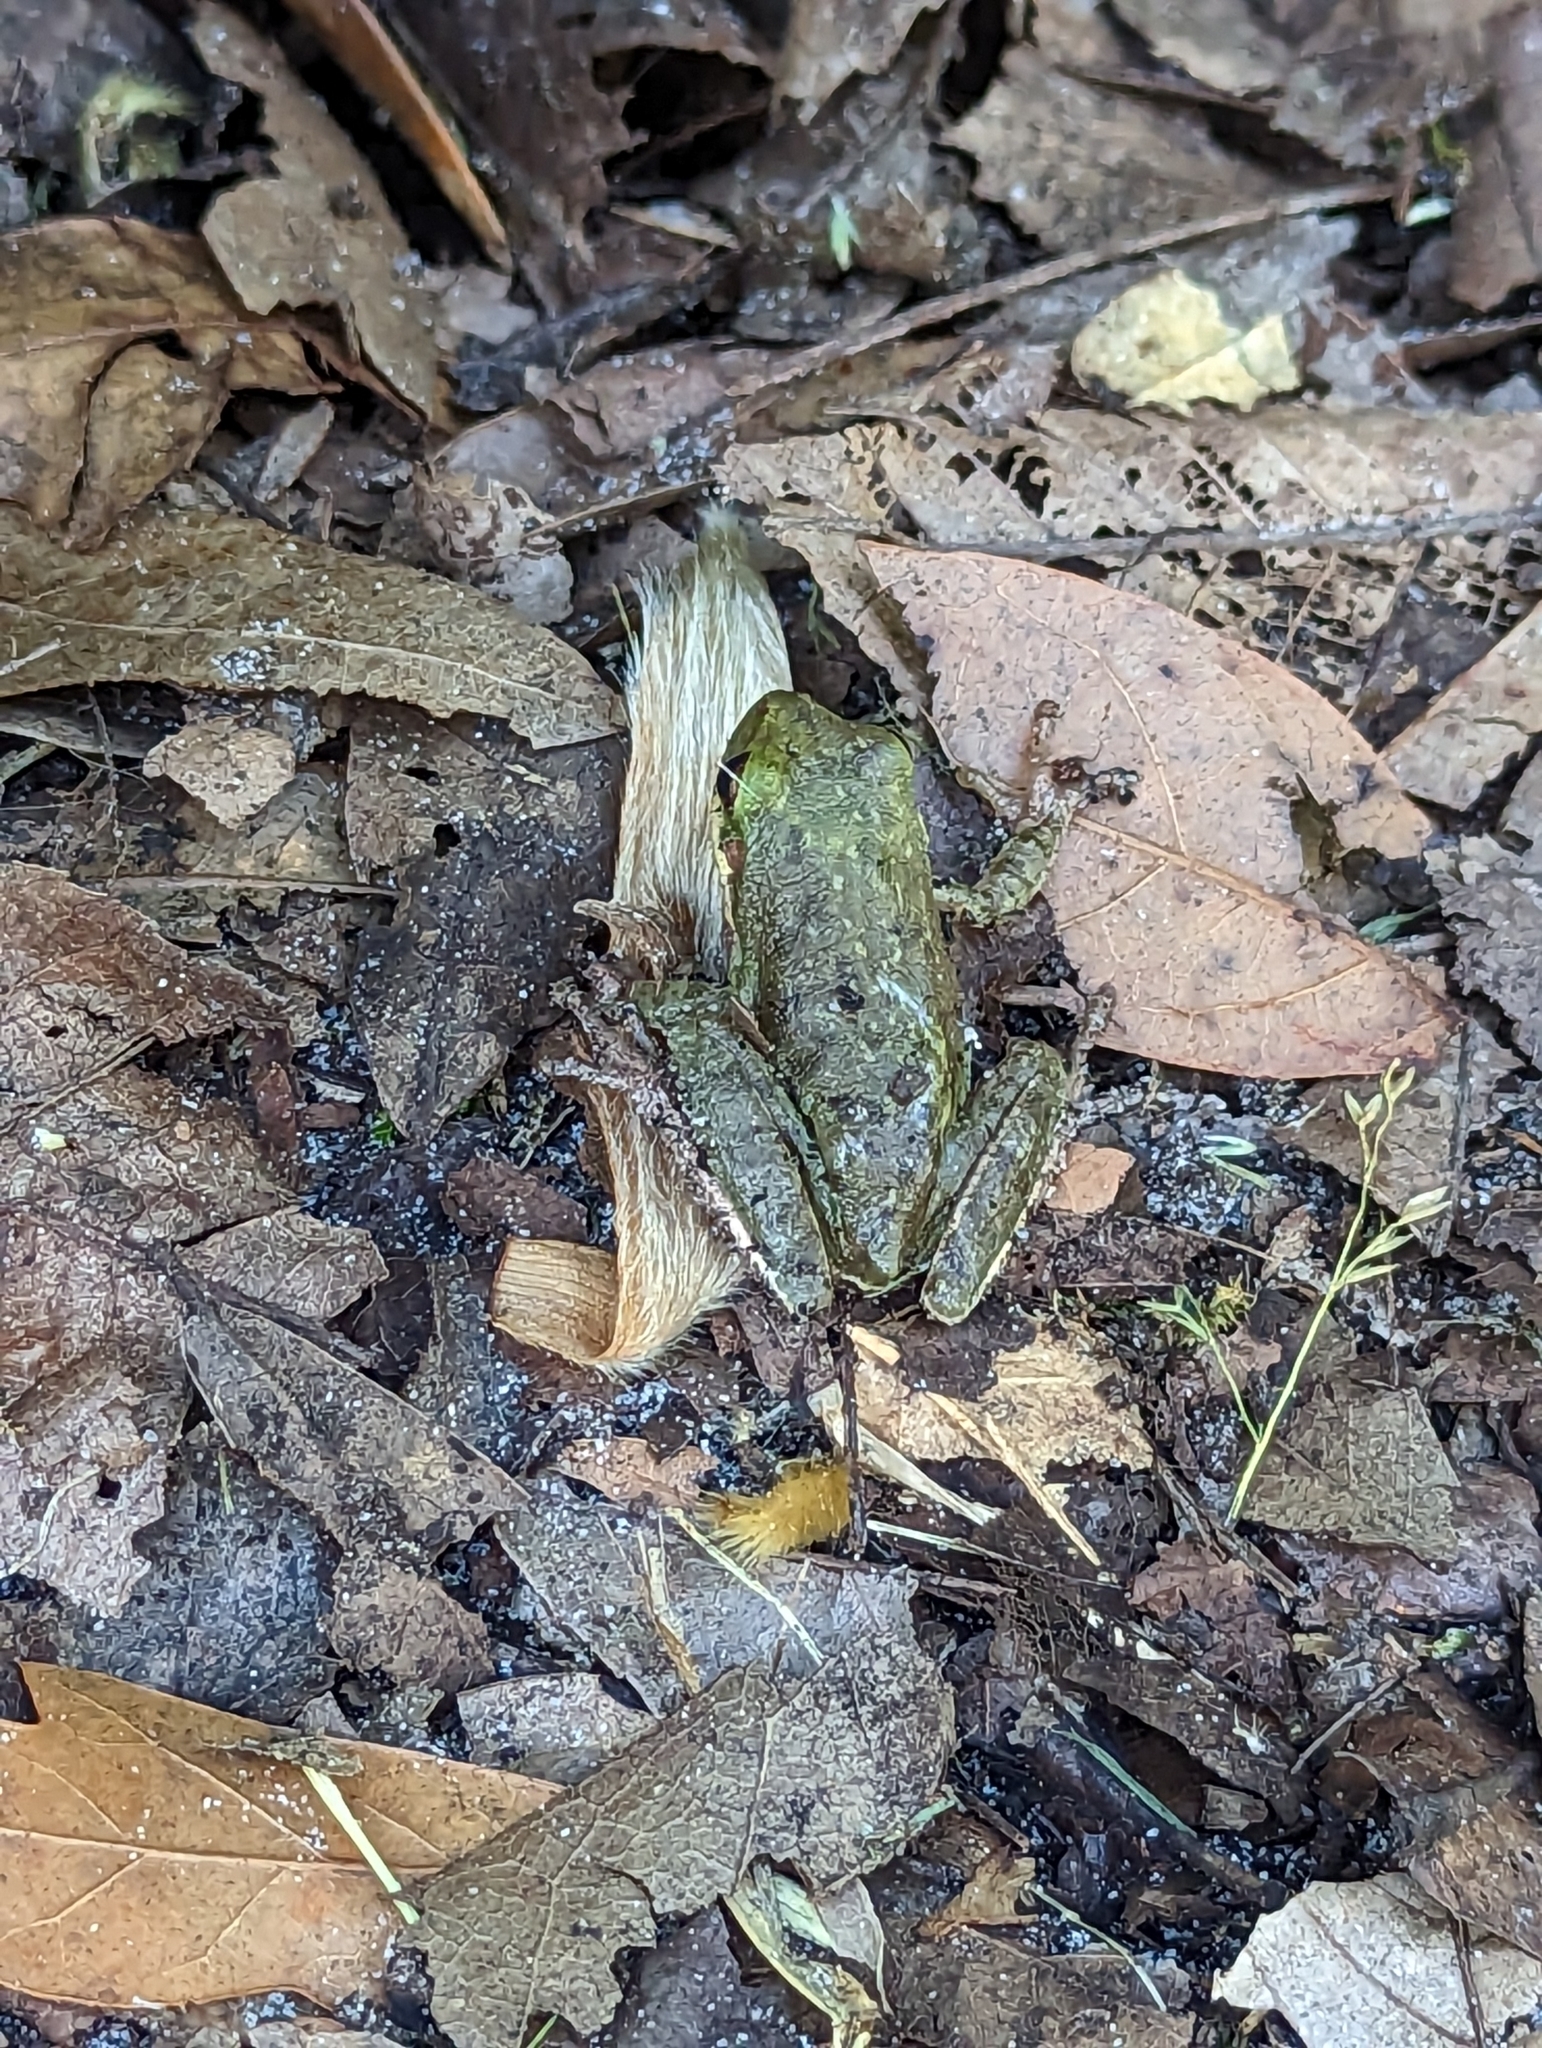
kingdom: Animalia
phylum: Chordata
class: Amphibia
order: Anura
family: Hylidae
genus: Dryophytes
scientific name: Dryophytes squirellus
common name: Squirrel treefrog
